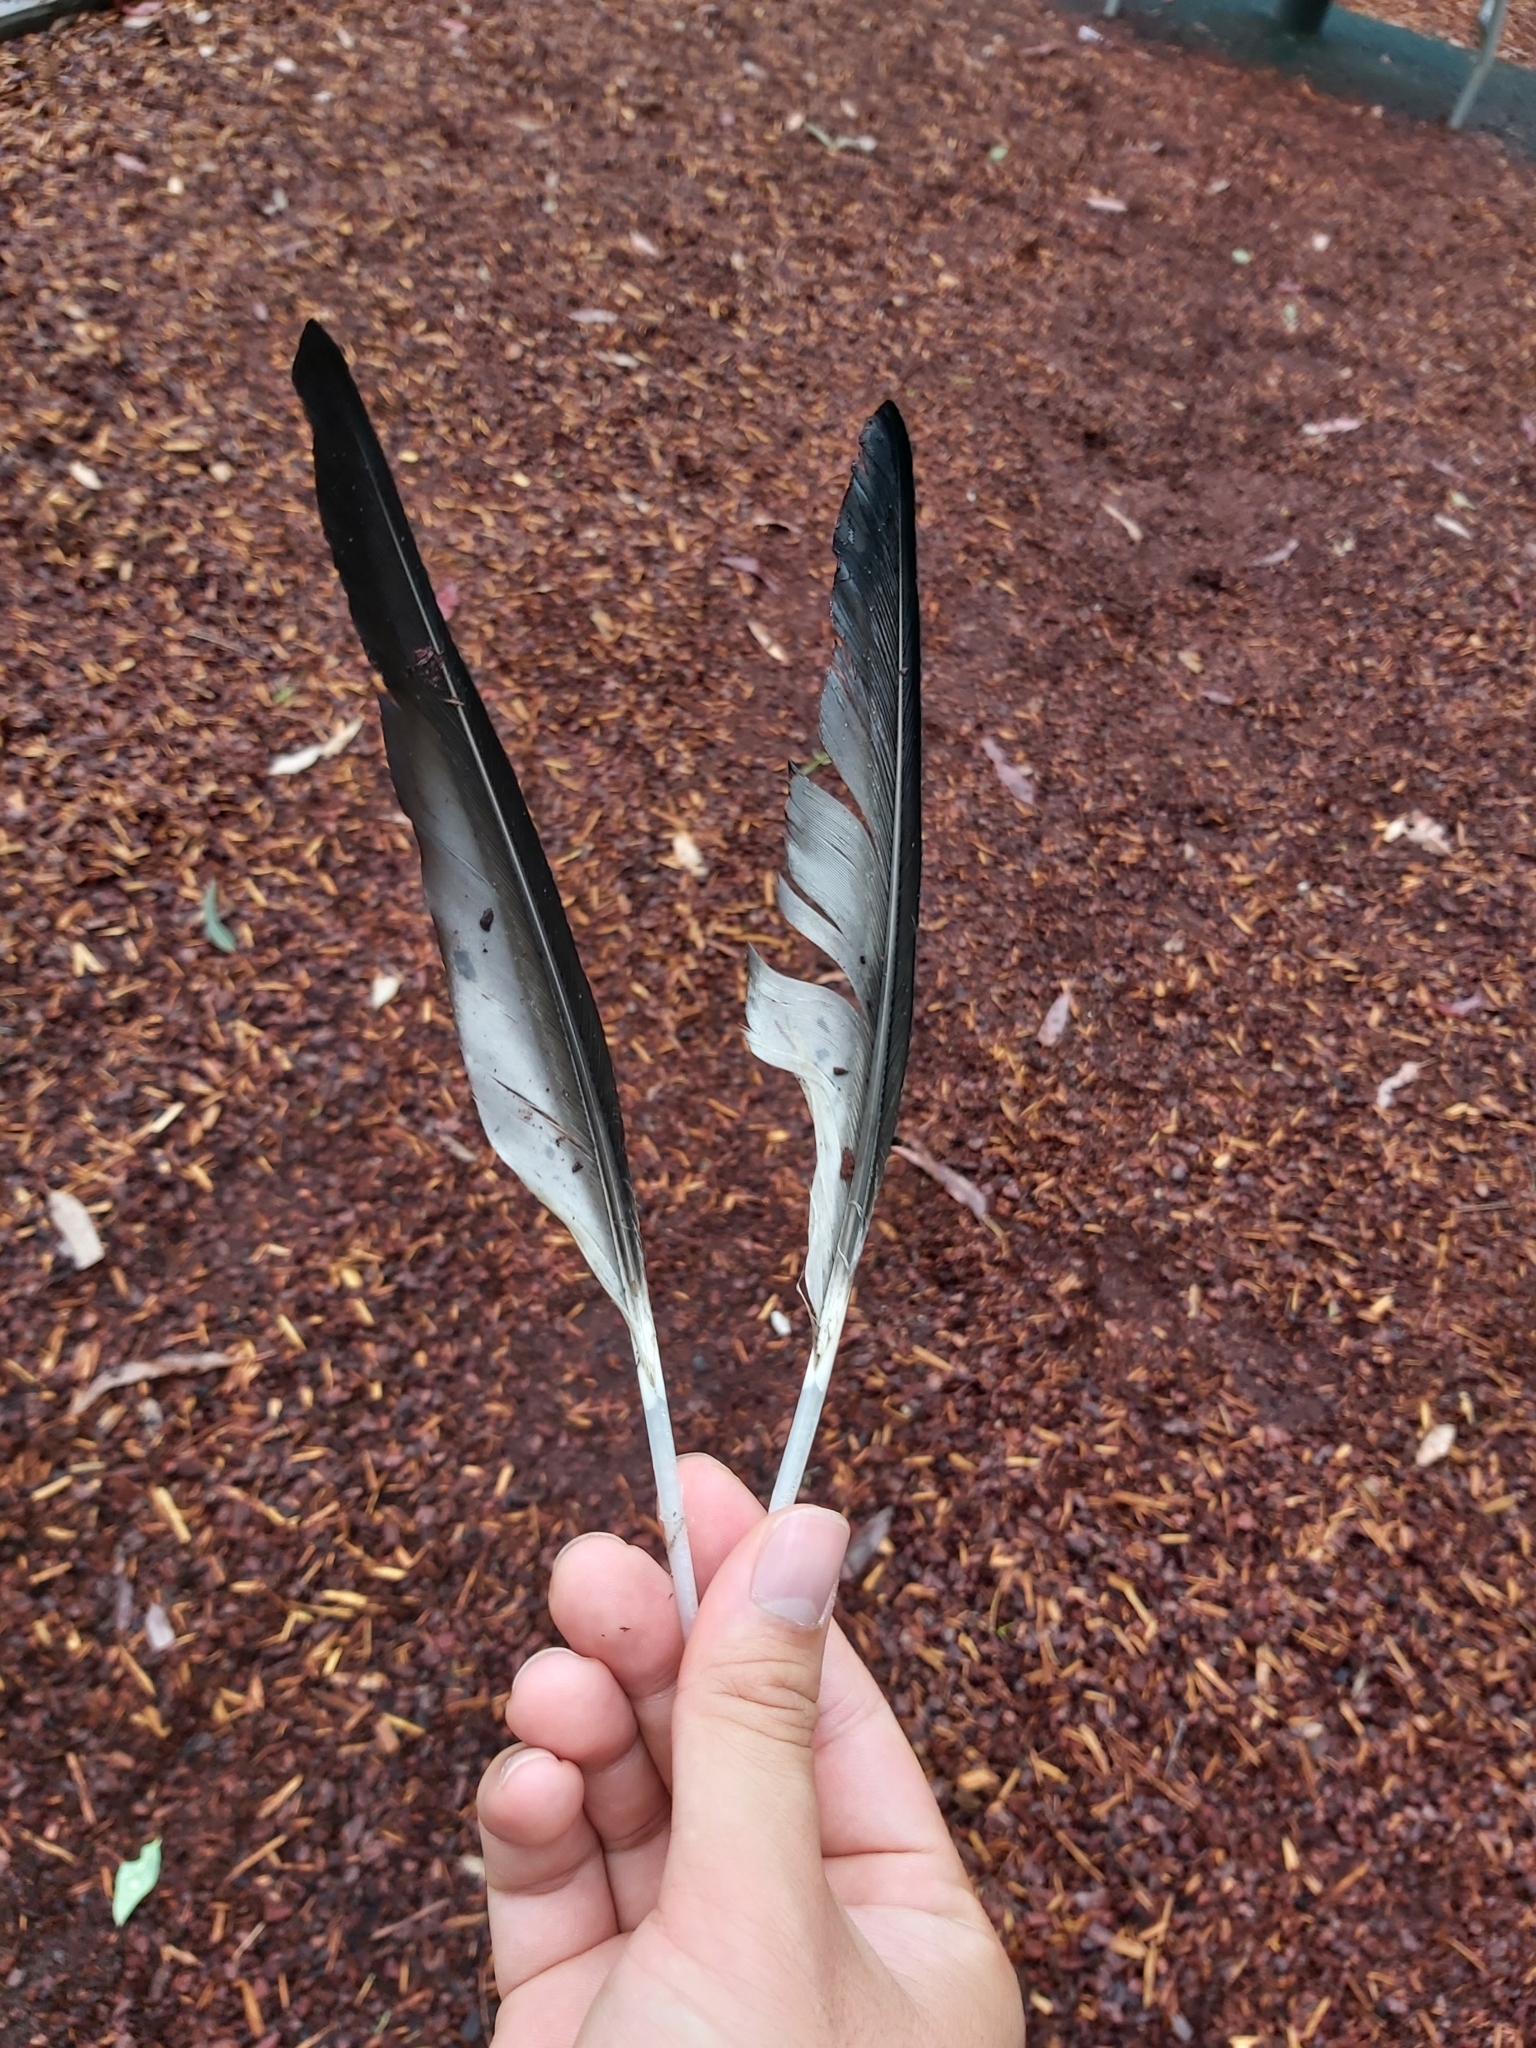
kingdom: Animalia
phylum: Chordata
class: Aves
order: Anseriformes
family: Anatidae
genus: Chenonetta
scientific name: Chenonetta jubata
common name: Maned duck
